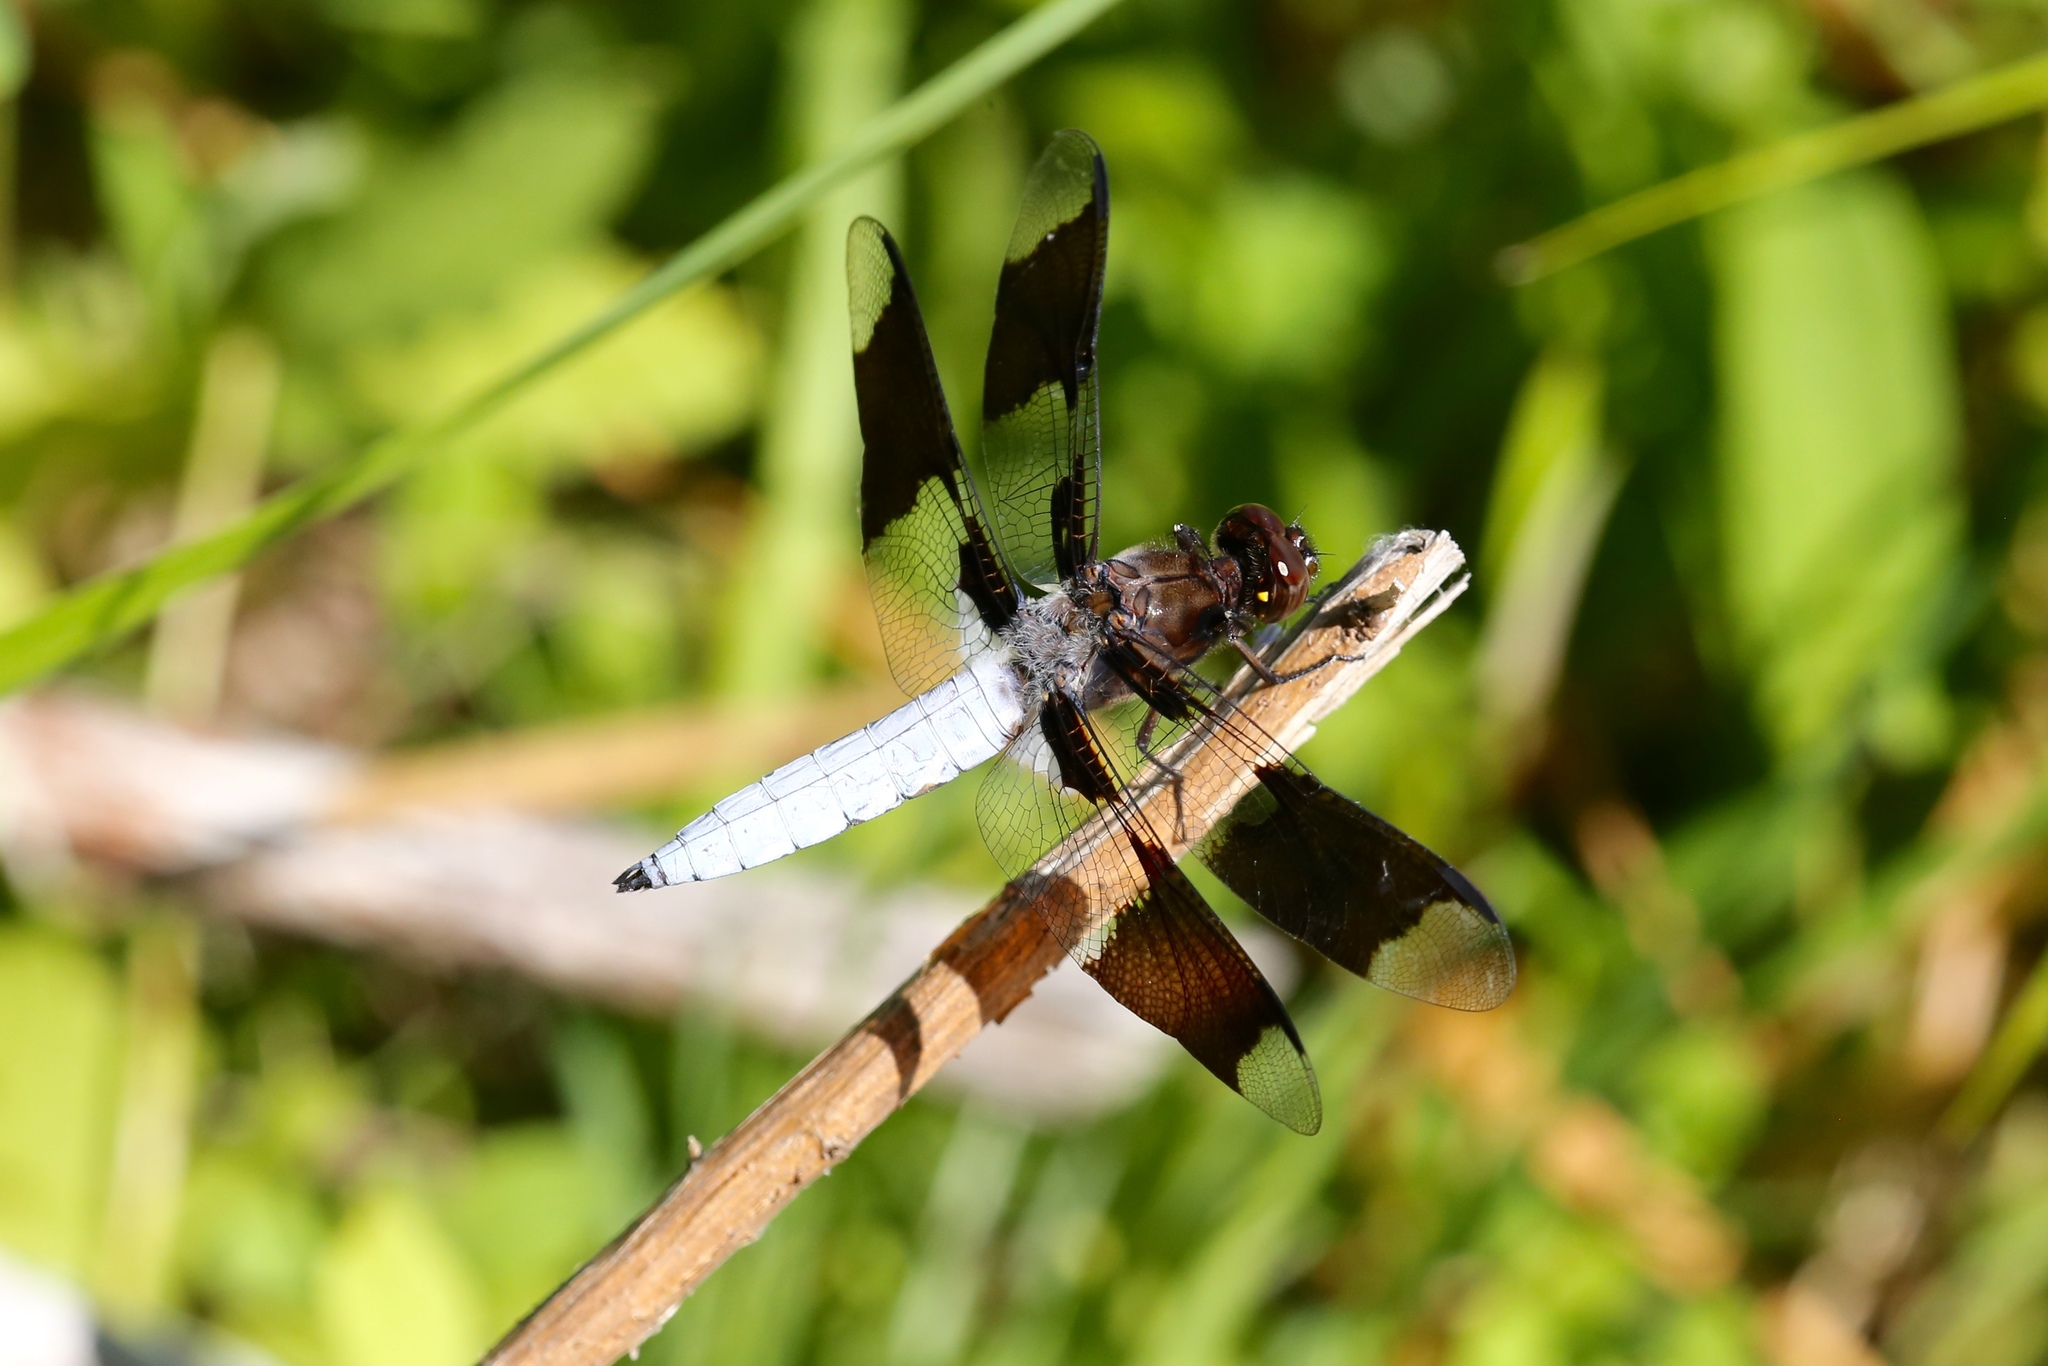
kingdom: Animalia
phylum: Arthropoda
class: Insecta
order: Odonata
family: Libellulidae
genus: Plathemis
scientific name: Plathemis lydia
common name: Common whitetail
